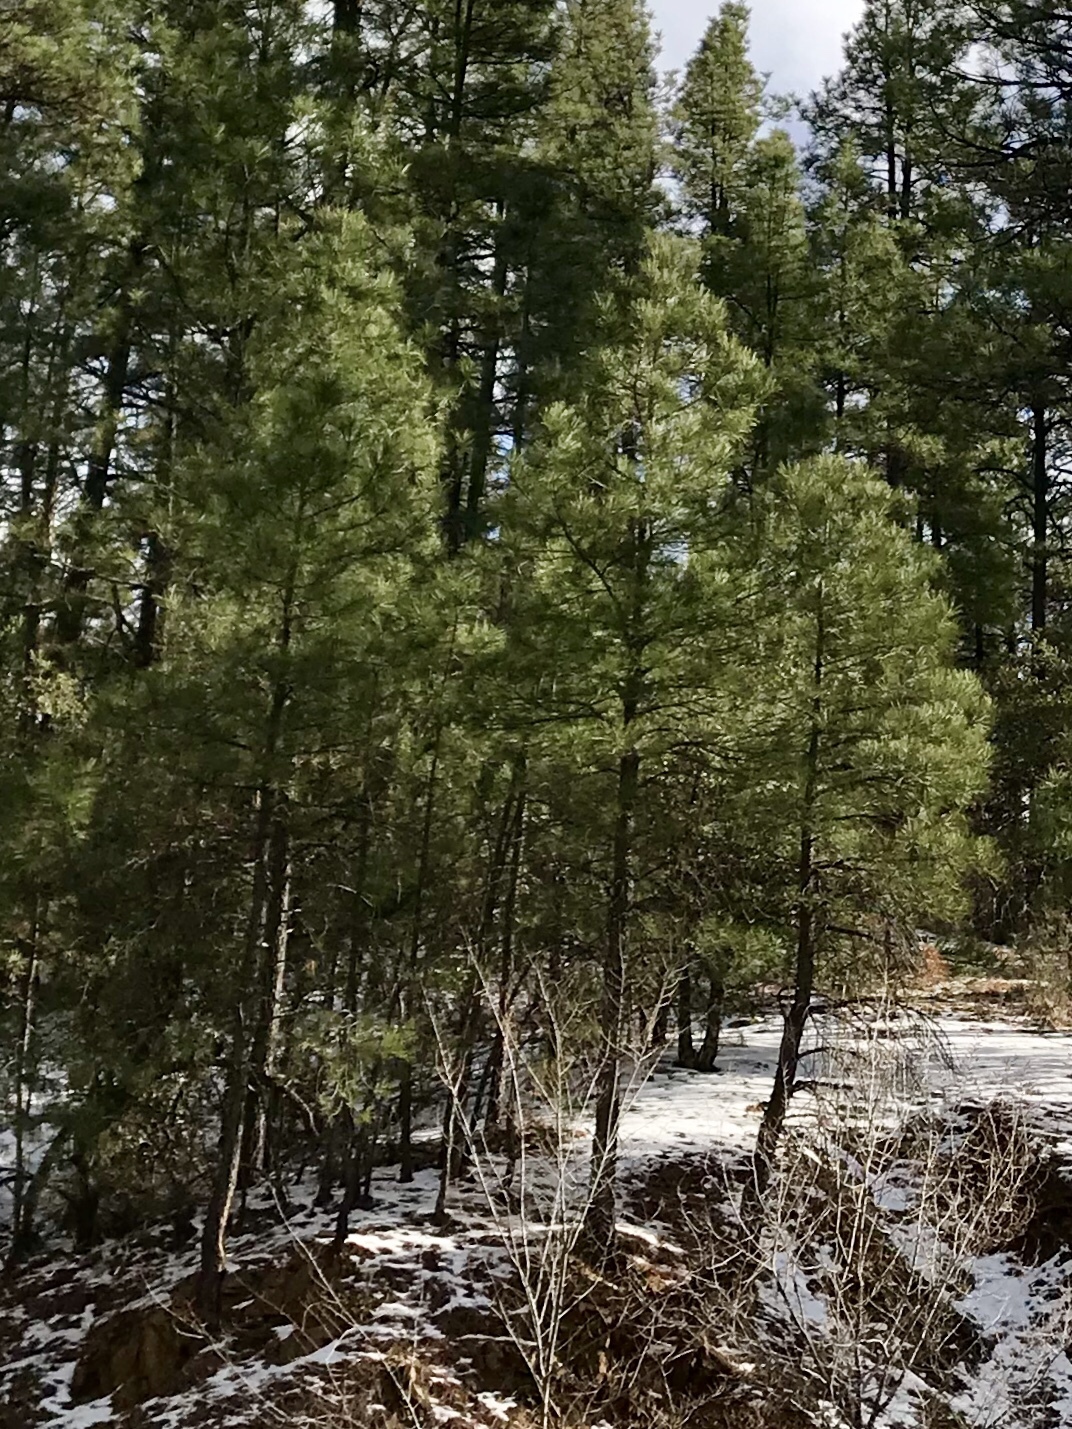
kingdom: Plantae
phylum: Tracheophyta
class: Pinopsida
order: Pinales
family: Pinaceae
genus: Pinus
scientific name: Pinus ponderosa
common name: Western yellow-pine
